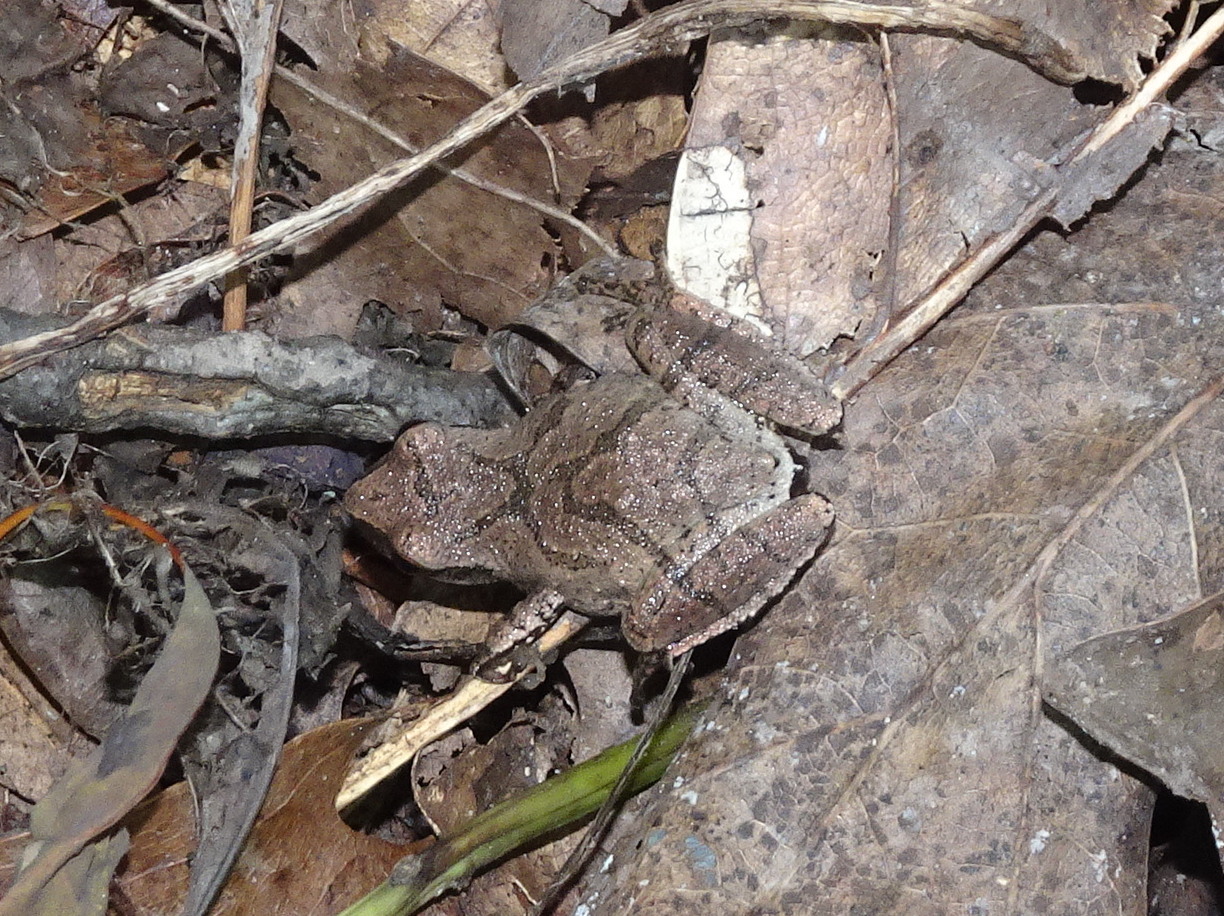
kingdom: Animalia
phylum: Chordata
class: Amphibia
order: Anura
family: Hylidae
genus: Pseudacris
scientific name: Pseudacris crucifer
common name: Spring peeper
